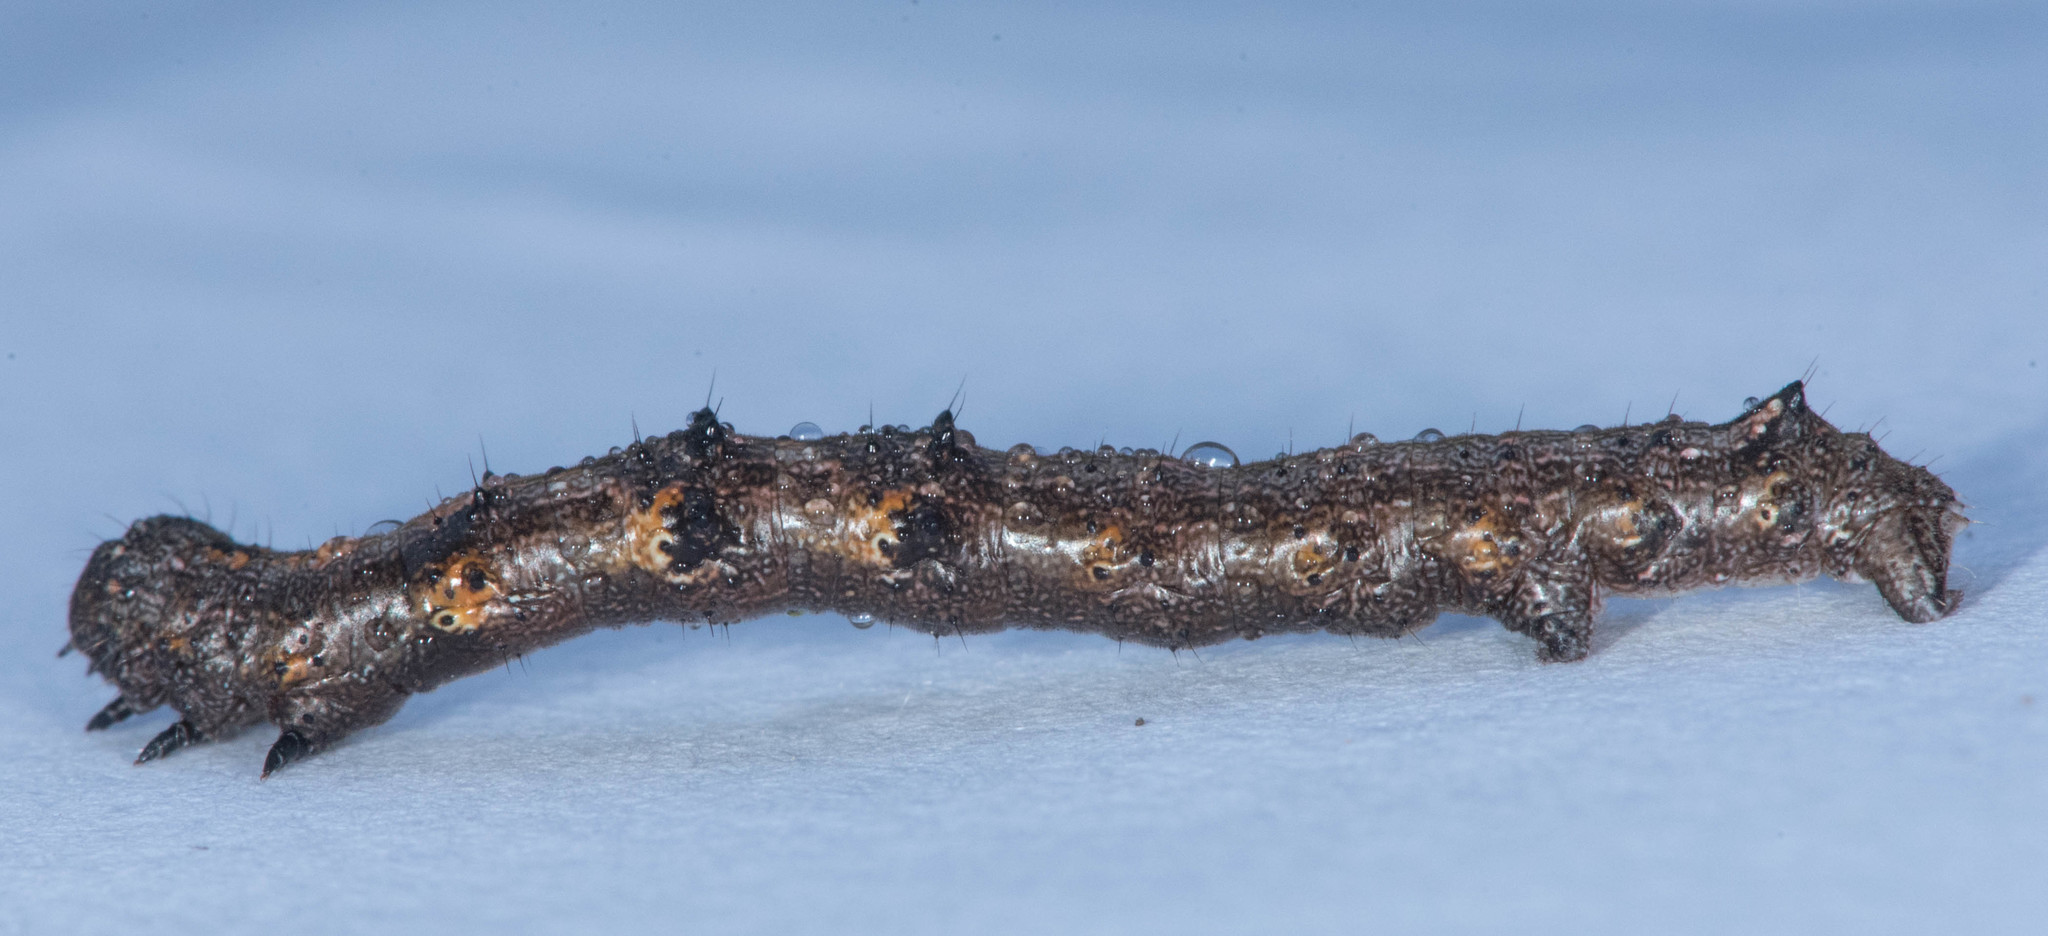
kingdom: Animalia
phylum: Arthropoda
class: Insecta
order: Lepidoptera
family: Geometridae
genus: Phigalia
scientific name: Phigalia plumogeraria
